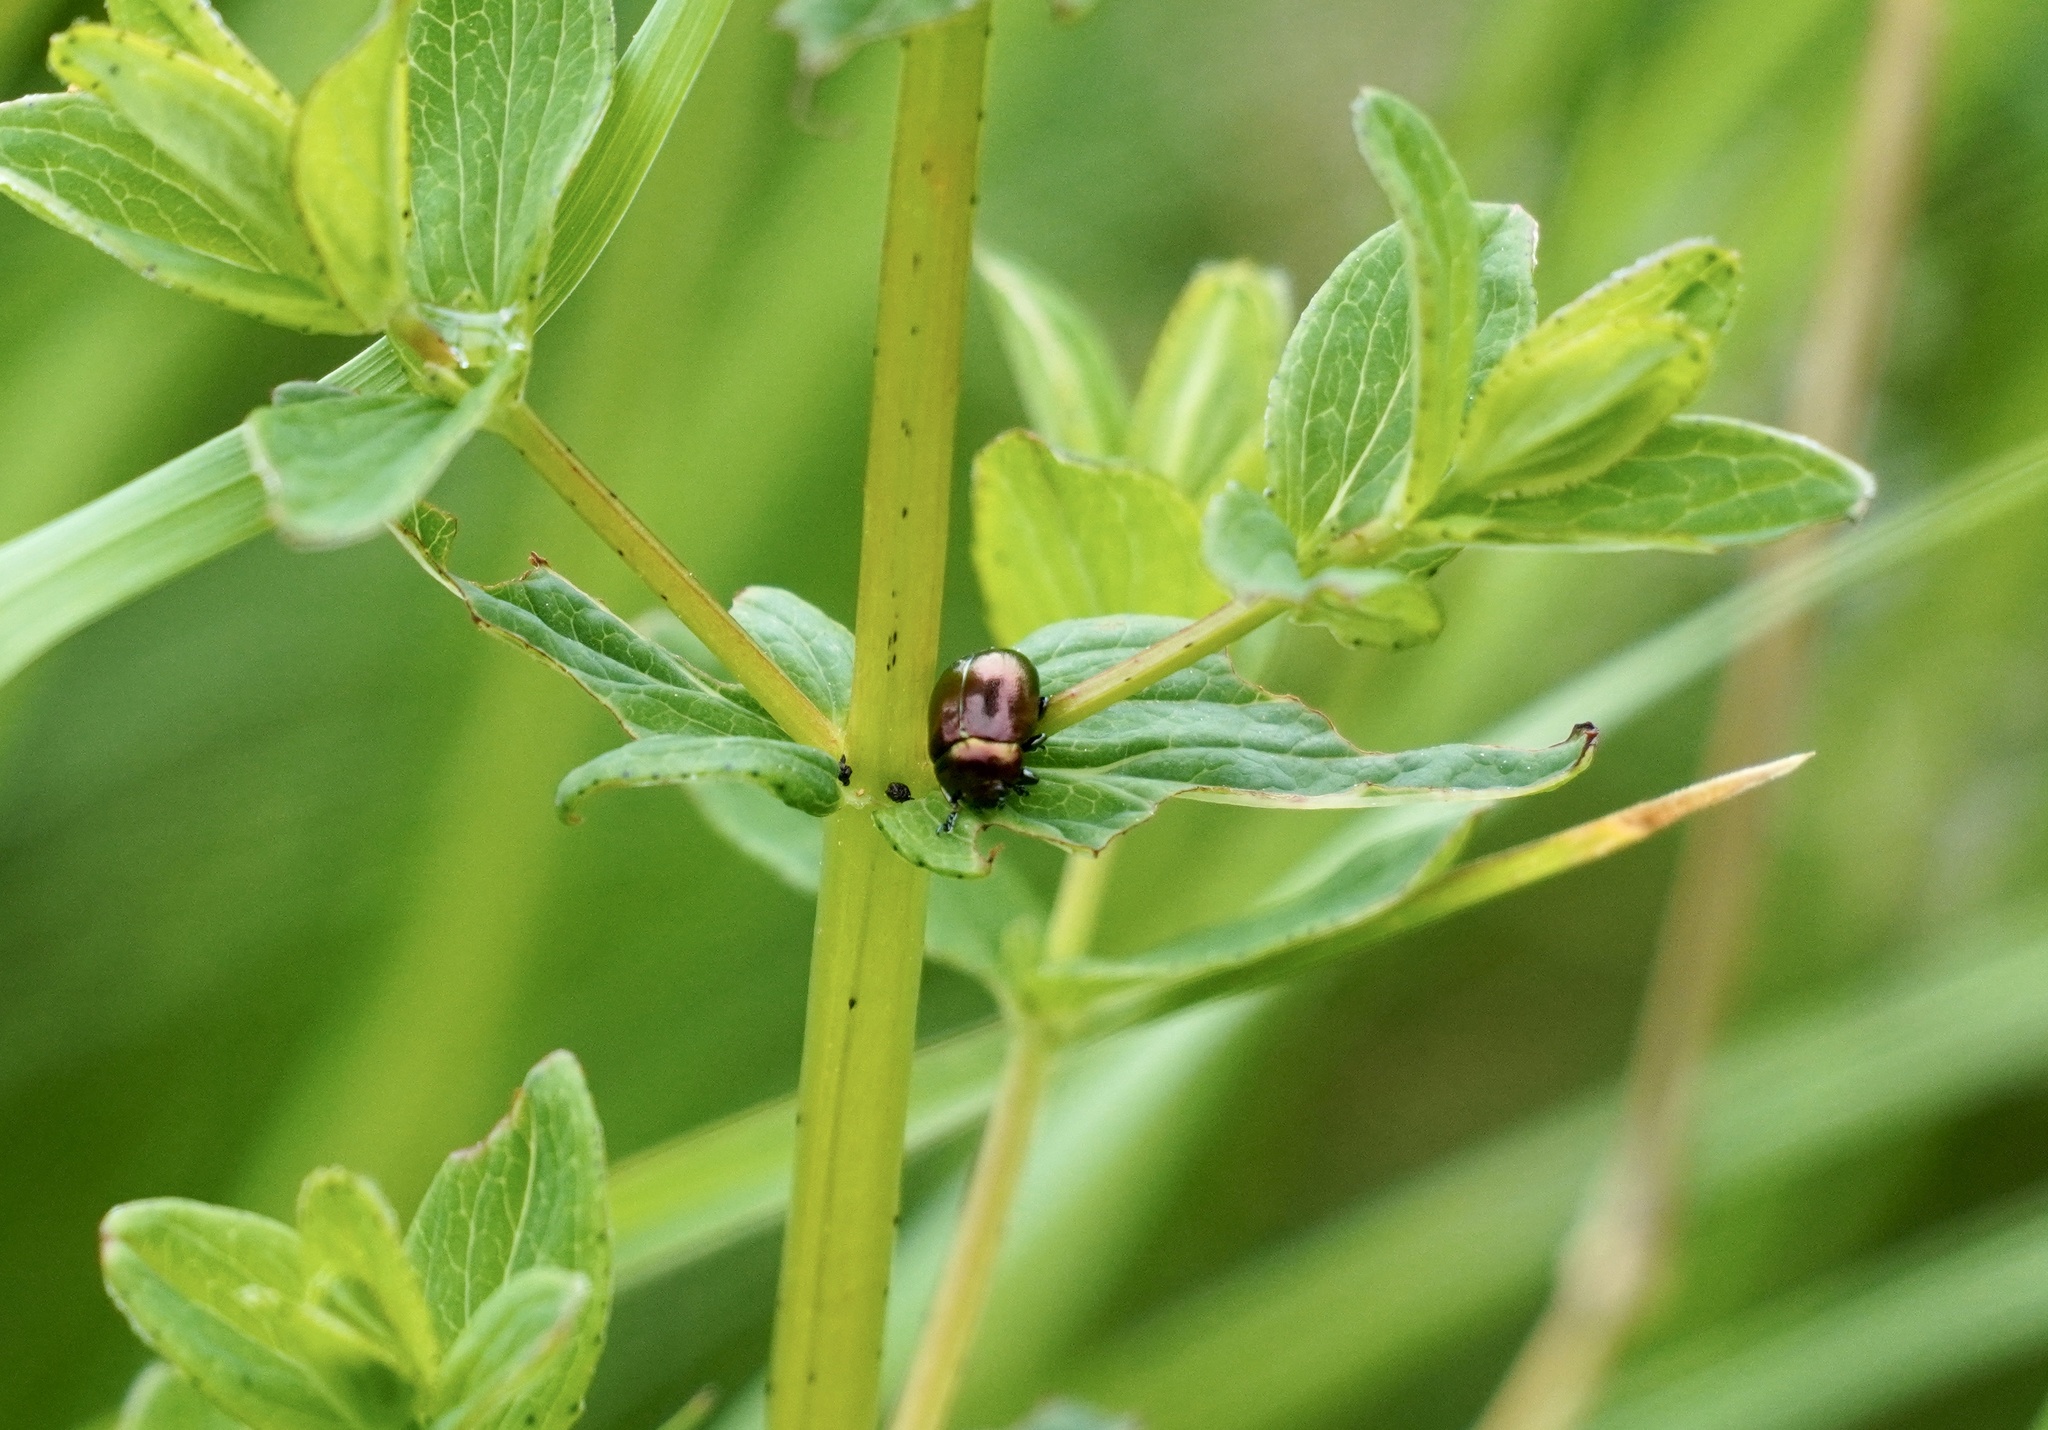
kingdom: Animalia
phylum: Arthropoda
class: Insecta
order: Coleoptera
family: Chrysomelidae
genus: Chrysolina
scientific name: Chrysolina varians
